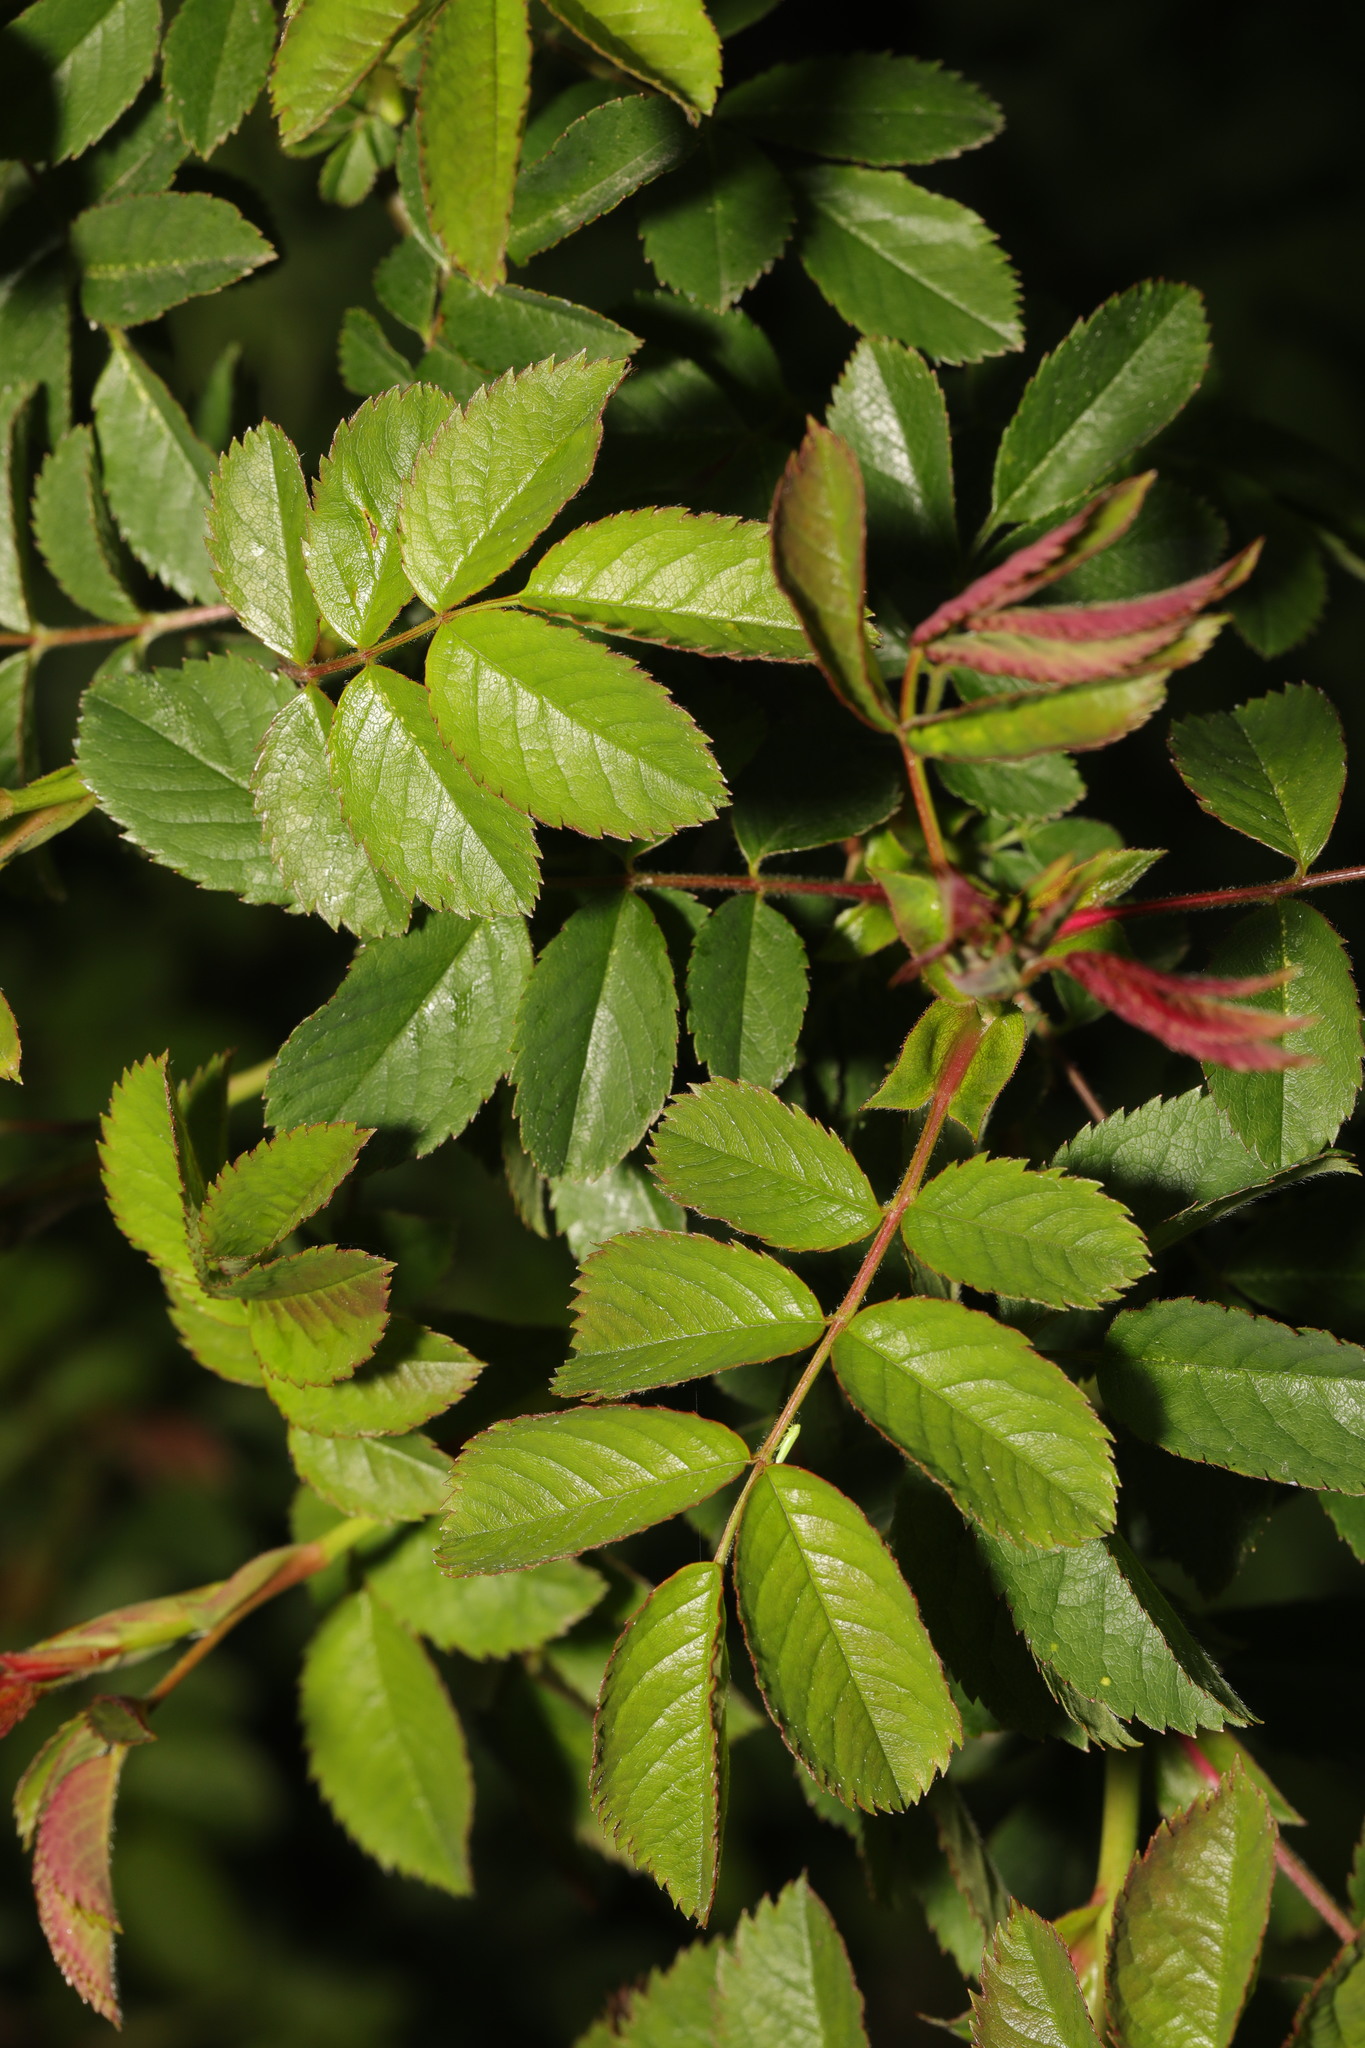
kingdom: Plantae
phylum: Tracheophyta
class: Magnoliopsida
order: Rosales
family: Rosaceae
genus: Rosa
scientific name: Rosa multiflora
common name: Multiflora rose
